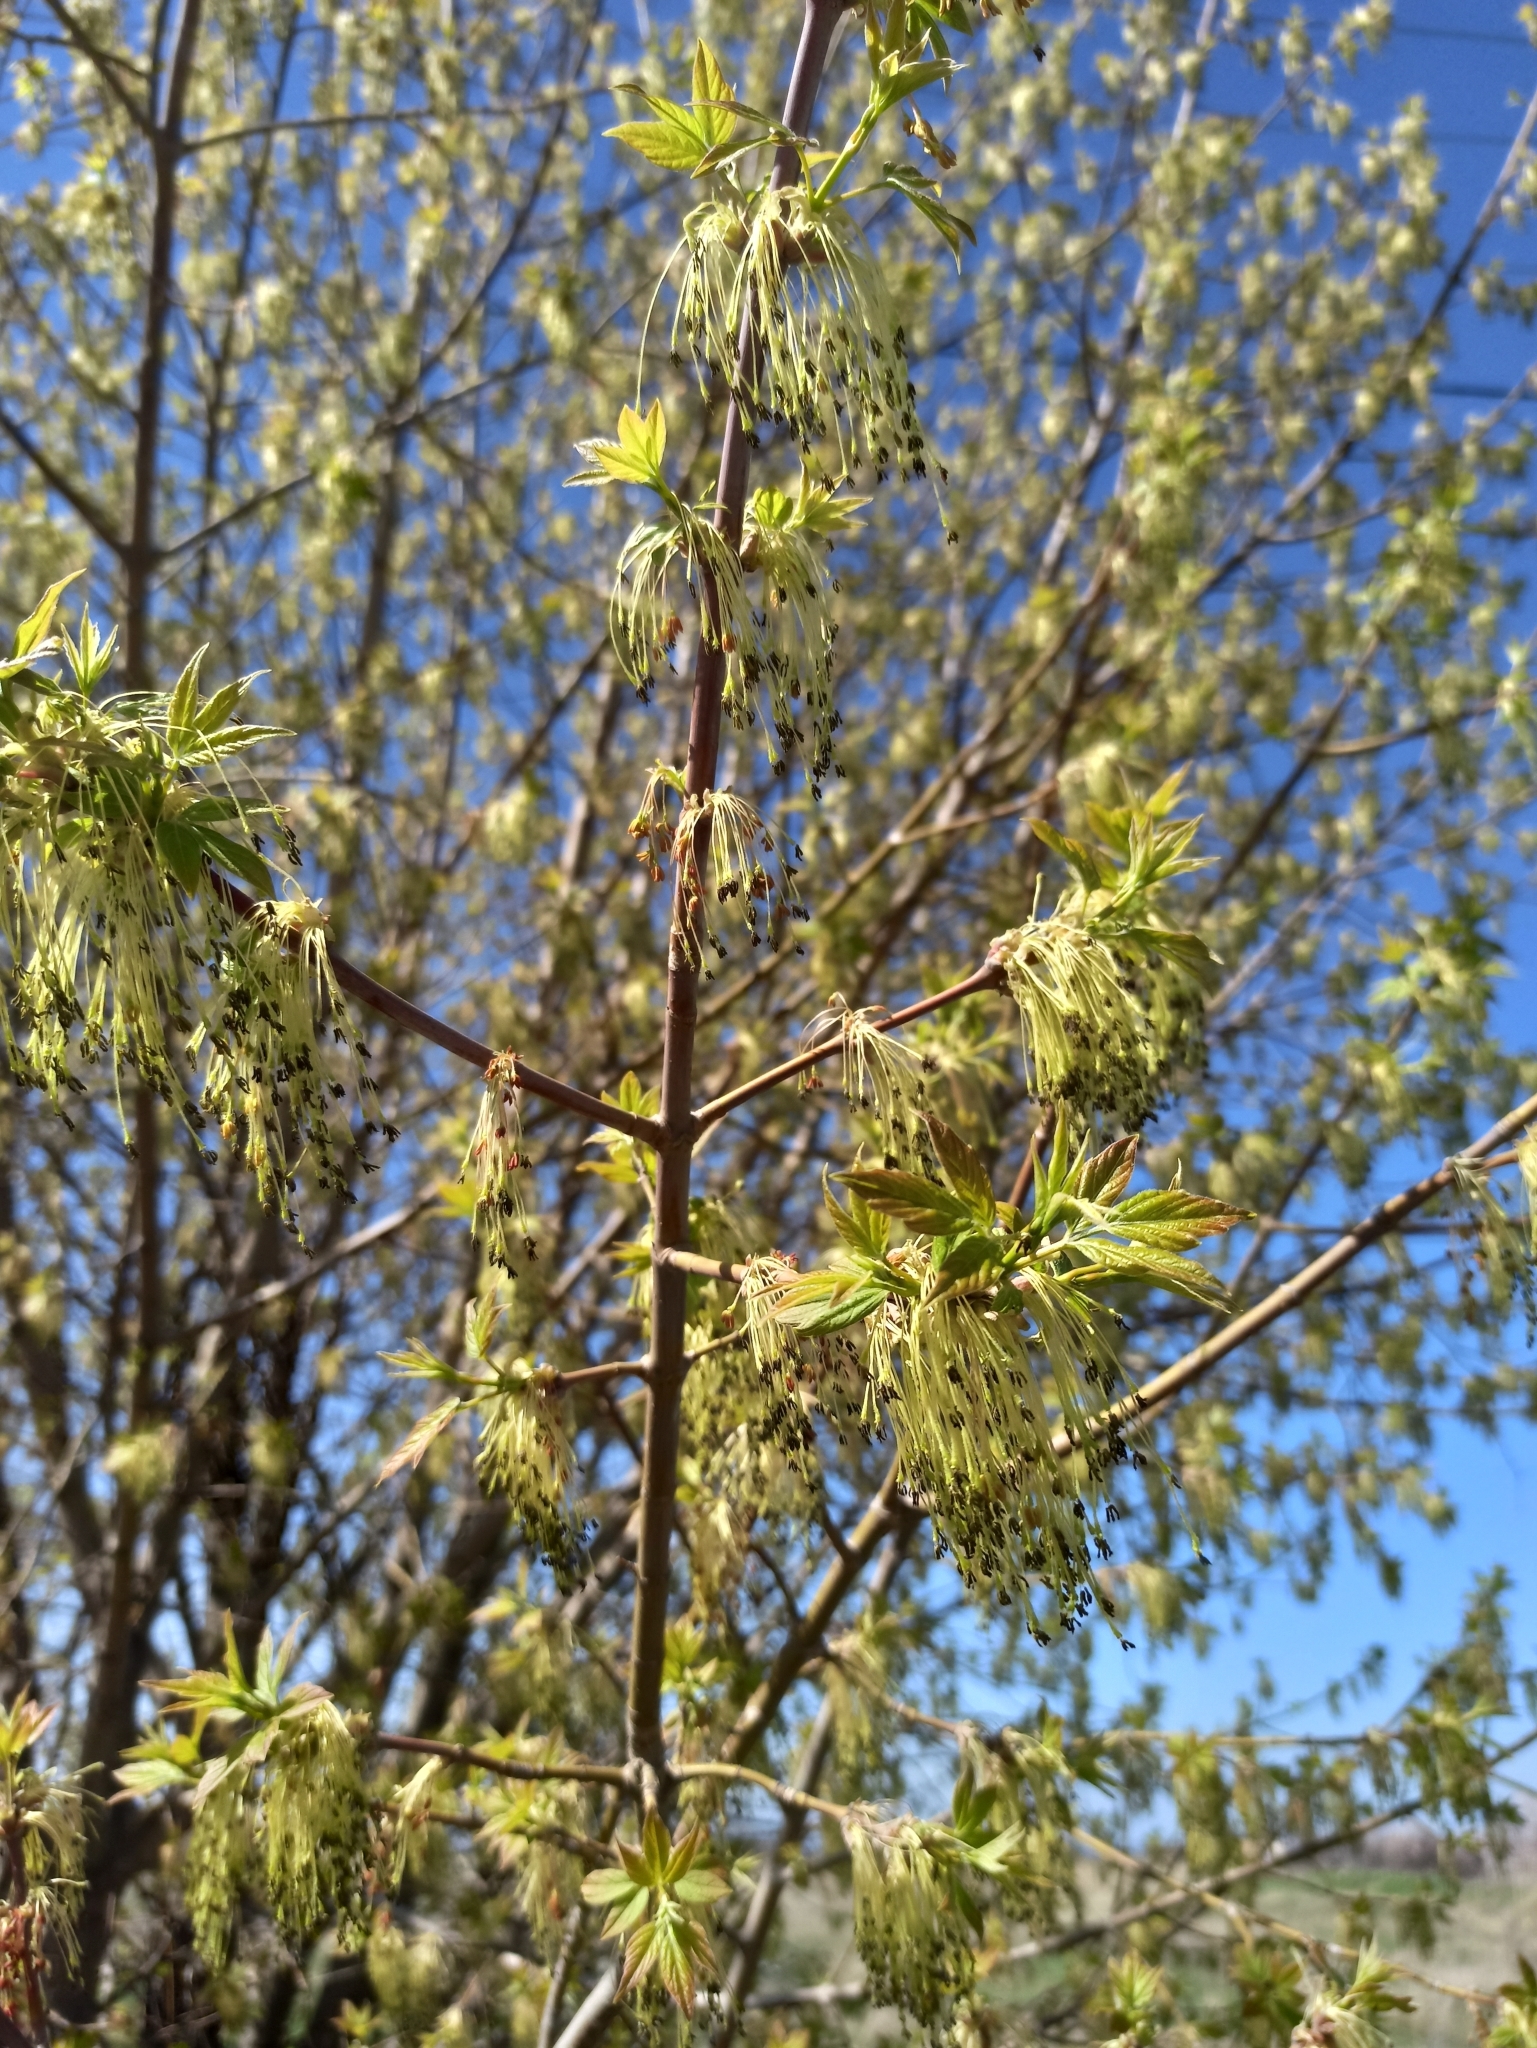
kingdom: Plantae
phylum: Tracheophyta
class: Magnoliopsida
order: Sapindales
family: Sapindaceae
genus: Acer
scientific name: Acer negundo
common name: Ashleaf maple
